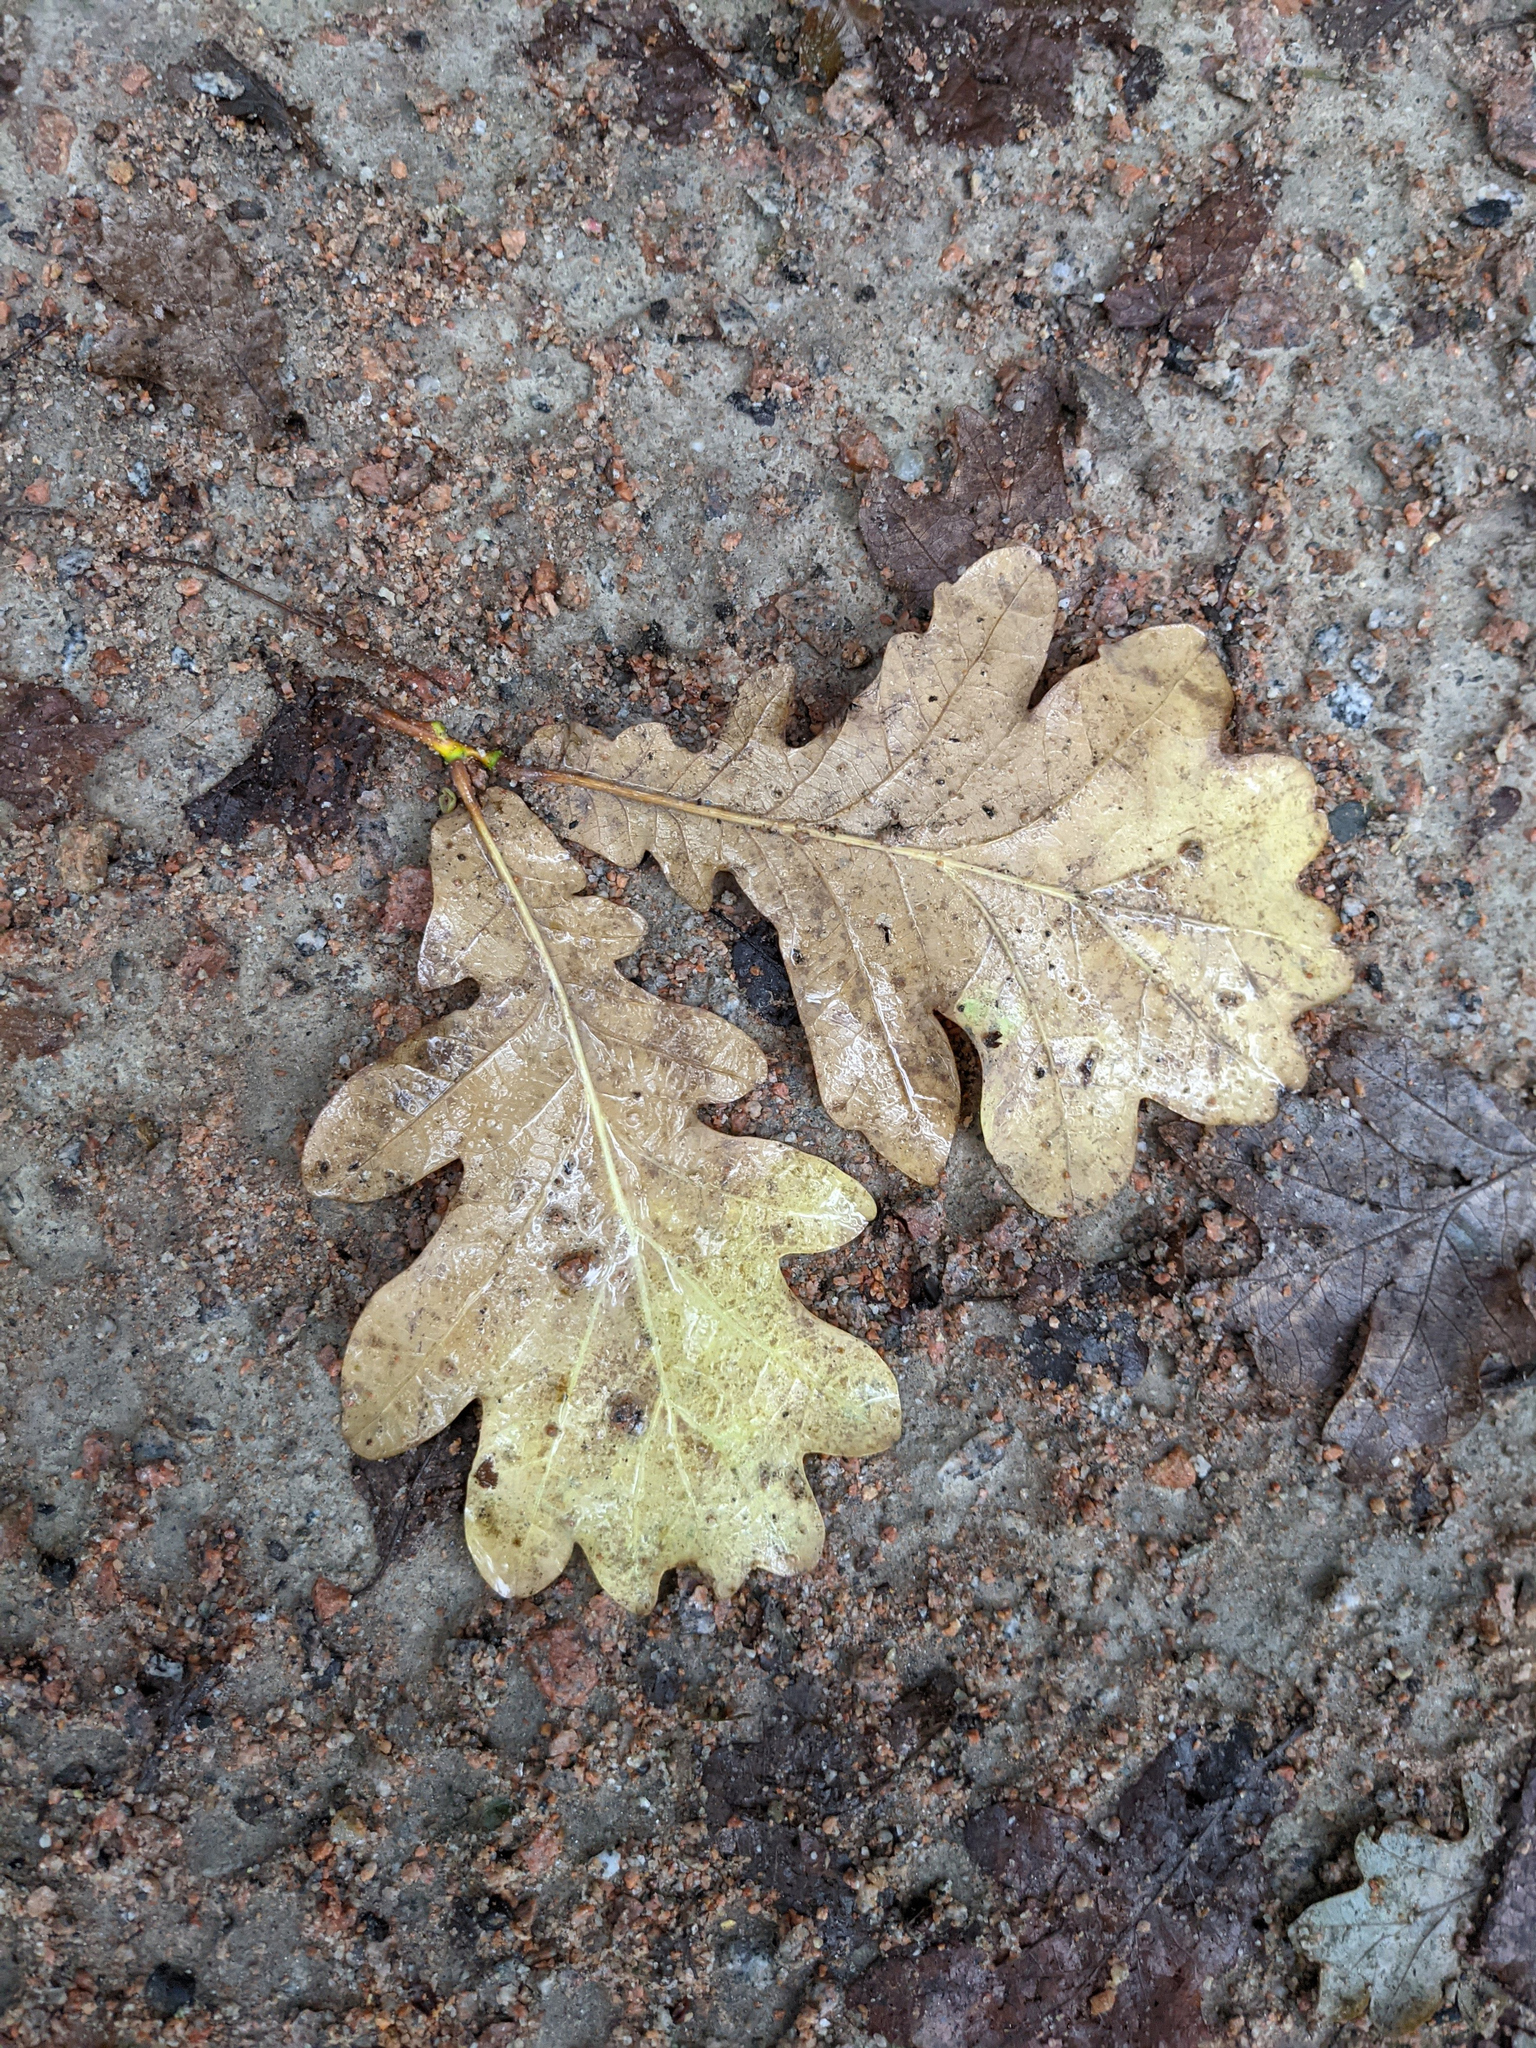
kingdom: Plantae
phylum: Tracheophyta
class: Magnoliopsida
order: Fagales
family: Fagaceae
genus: Quercus
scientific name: Quercus robur
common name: Pedunculate oak
